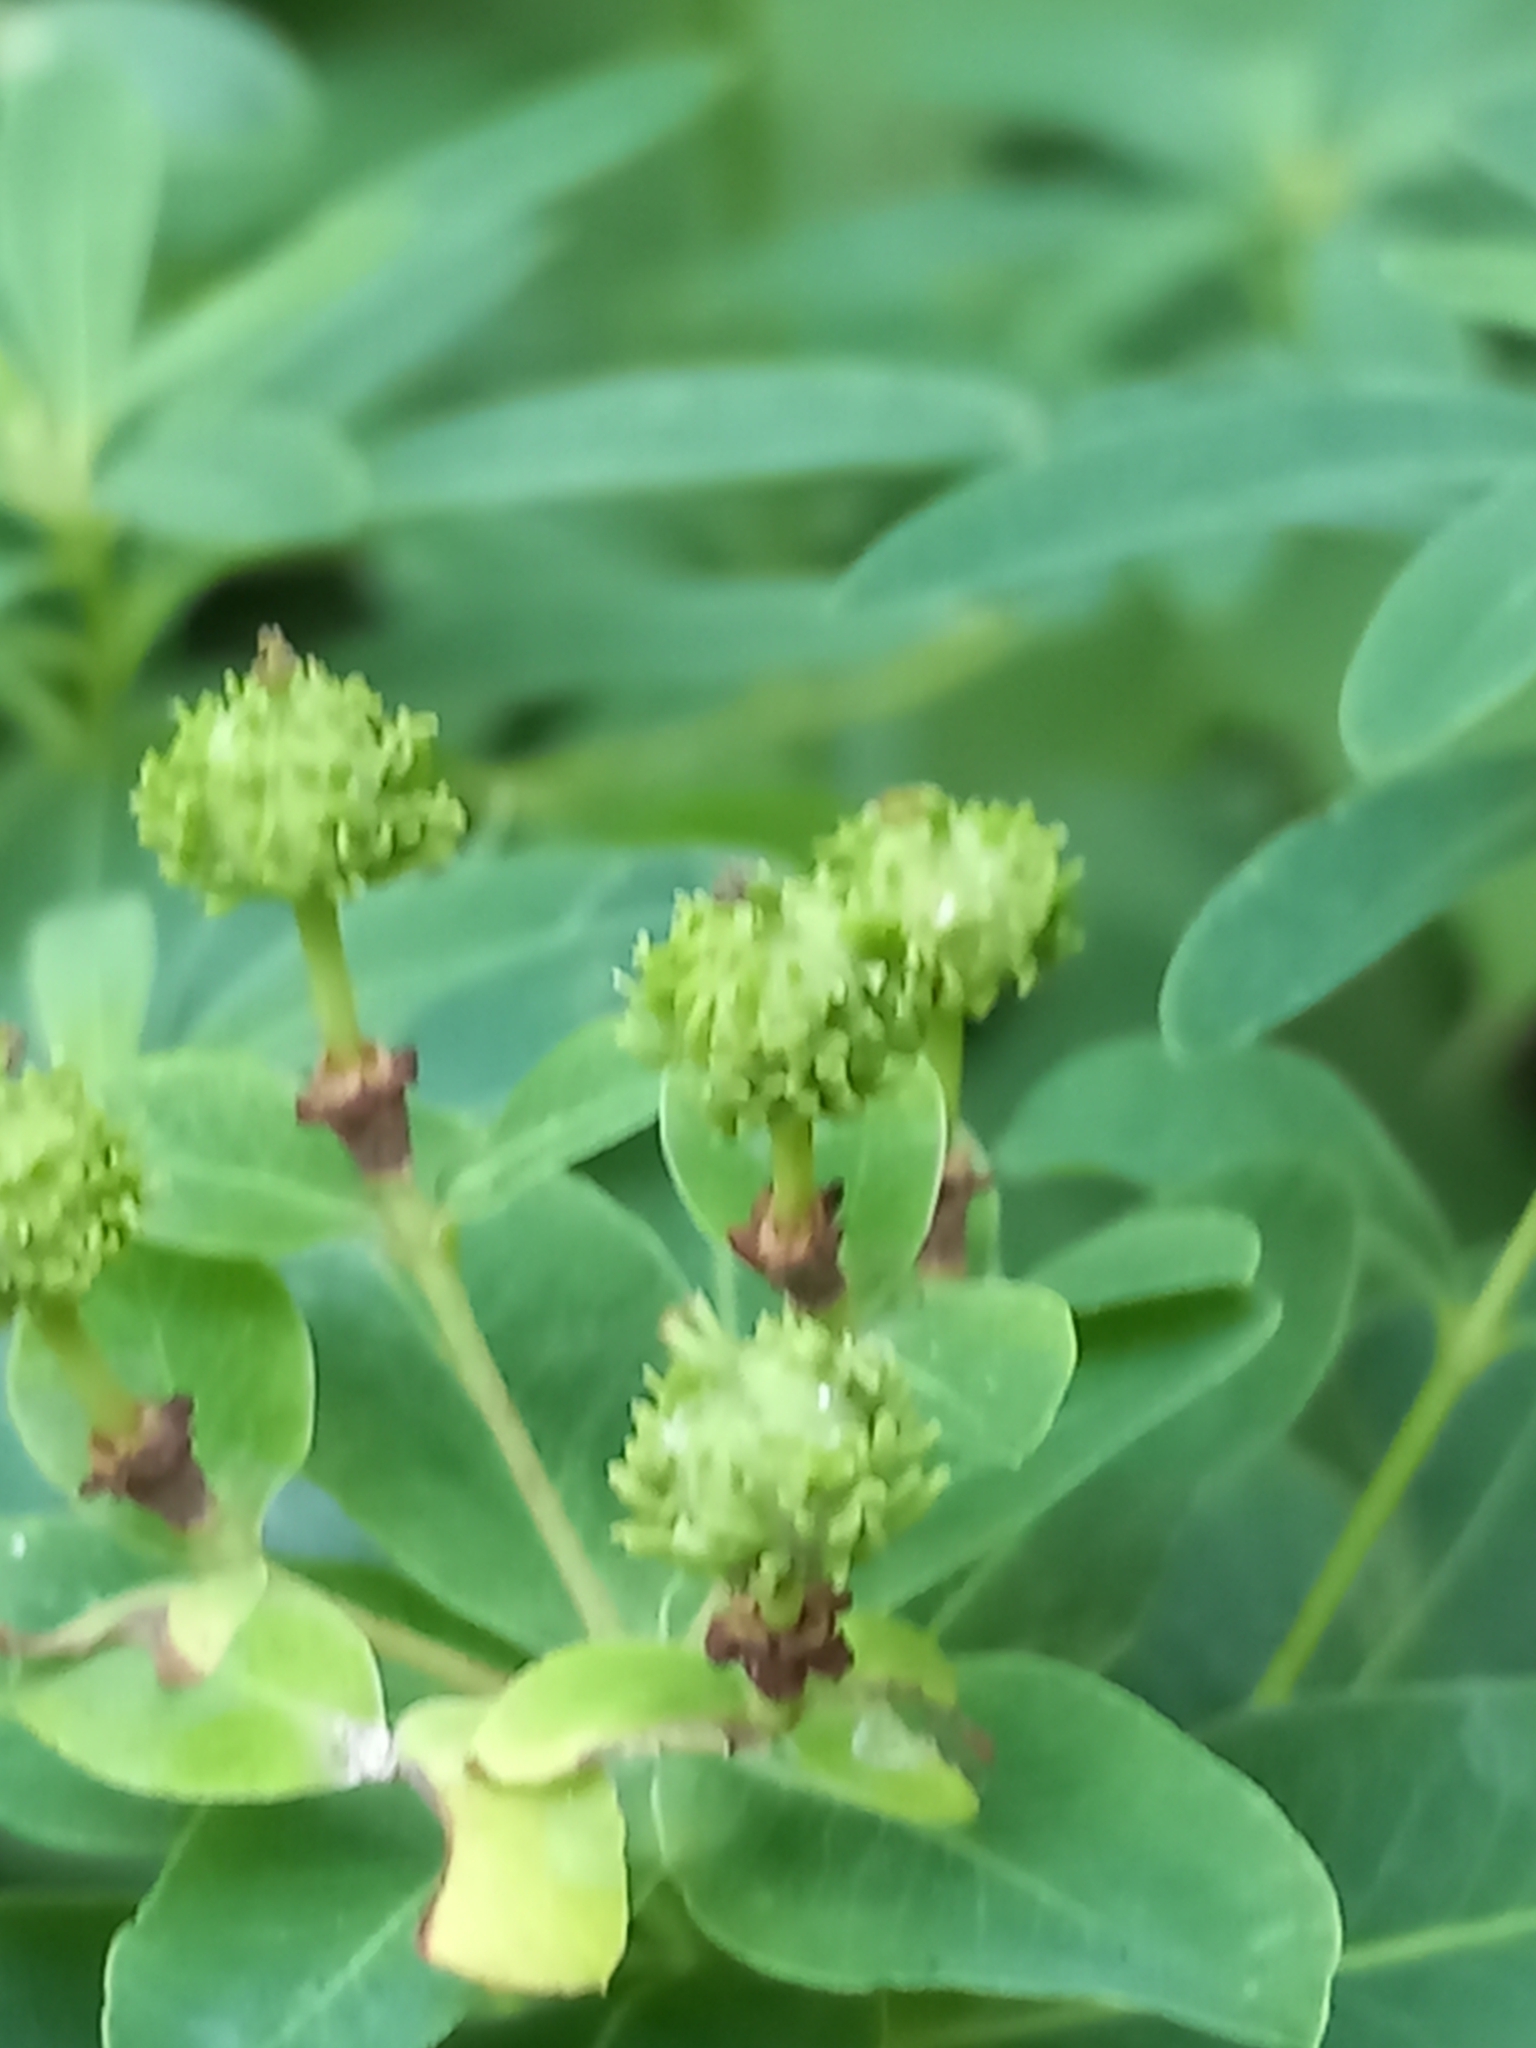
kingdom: Plantae
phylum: Tracheophyta
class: Magnoliopsida
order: Malpighiales
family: Euphorbiaceae
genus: Euphorbia
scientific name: Euphorbia eugeniae
